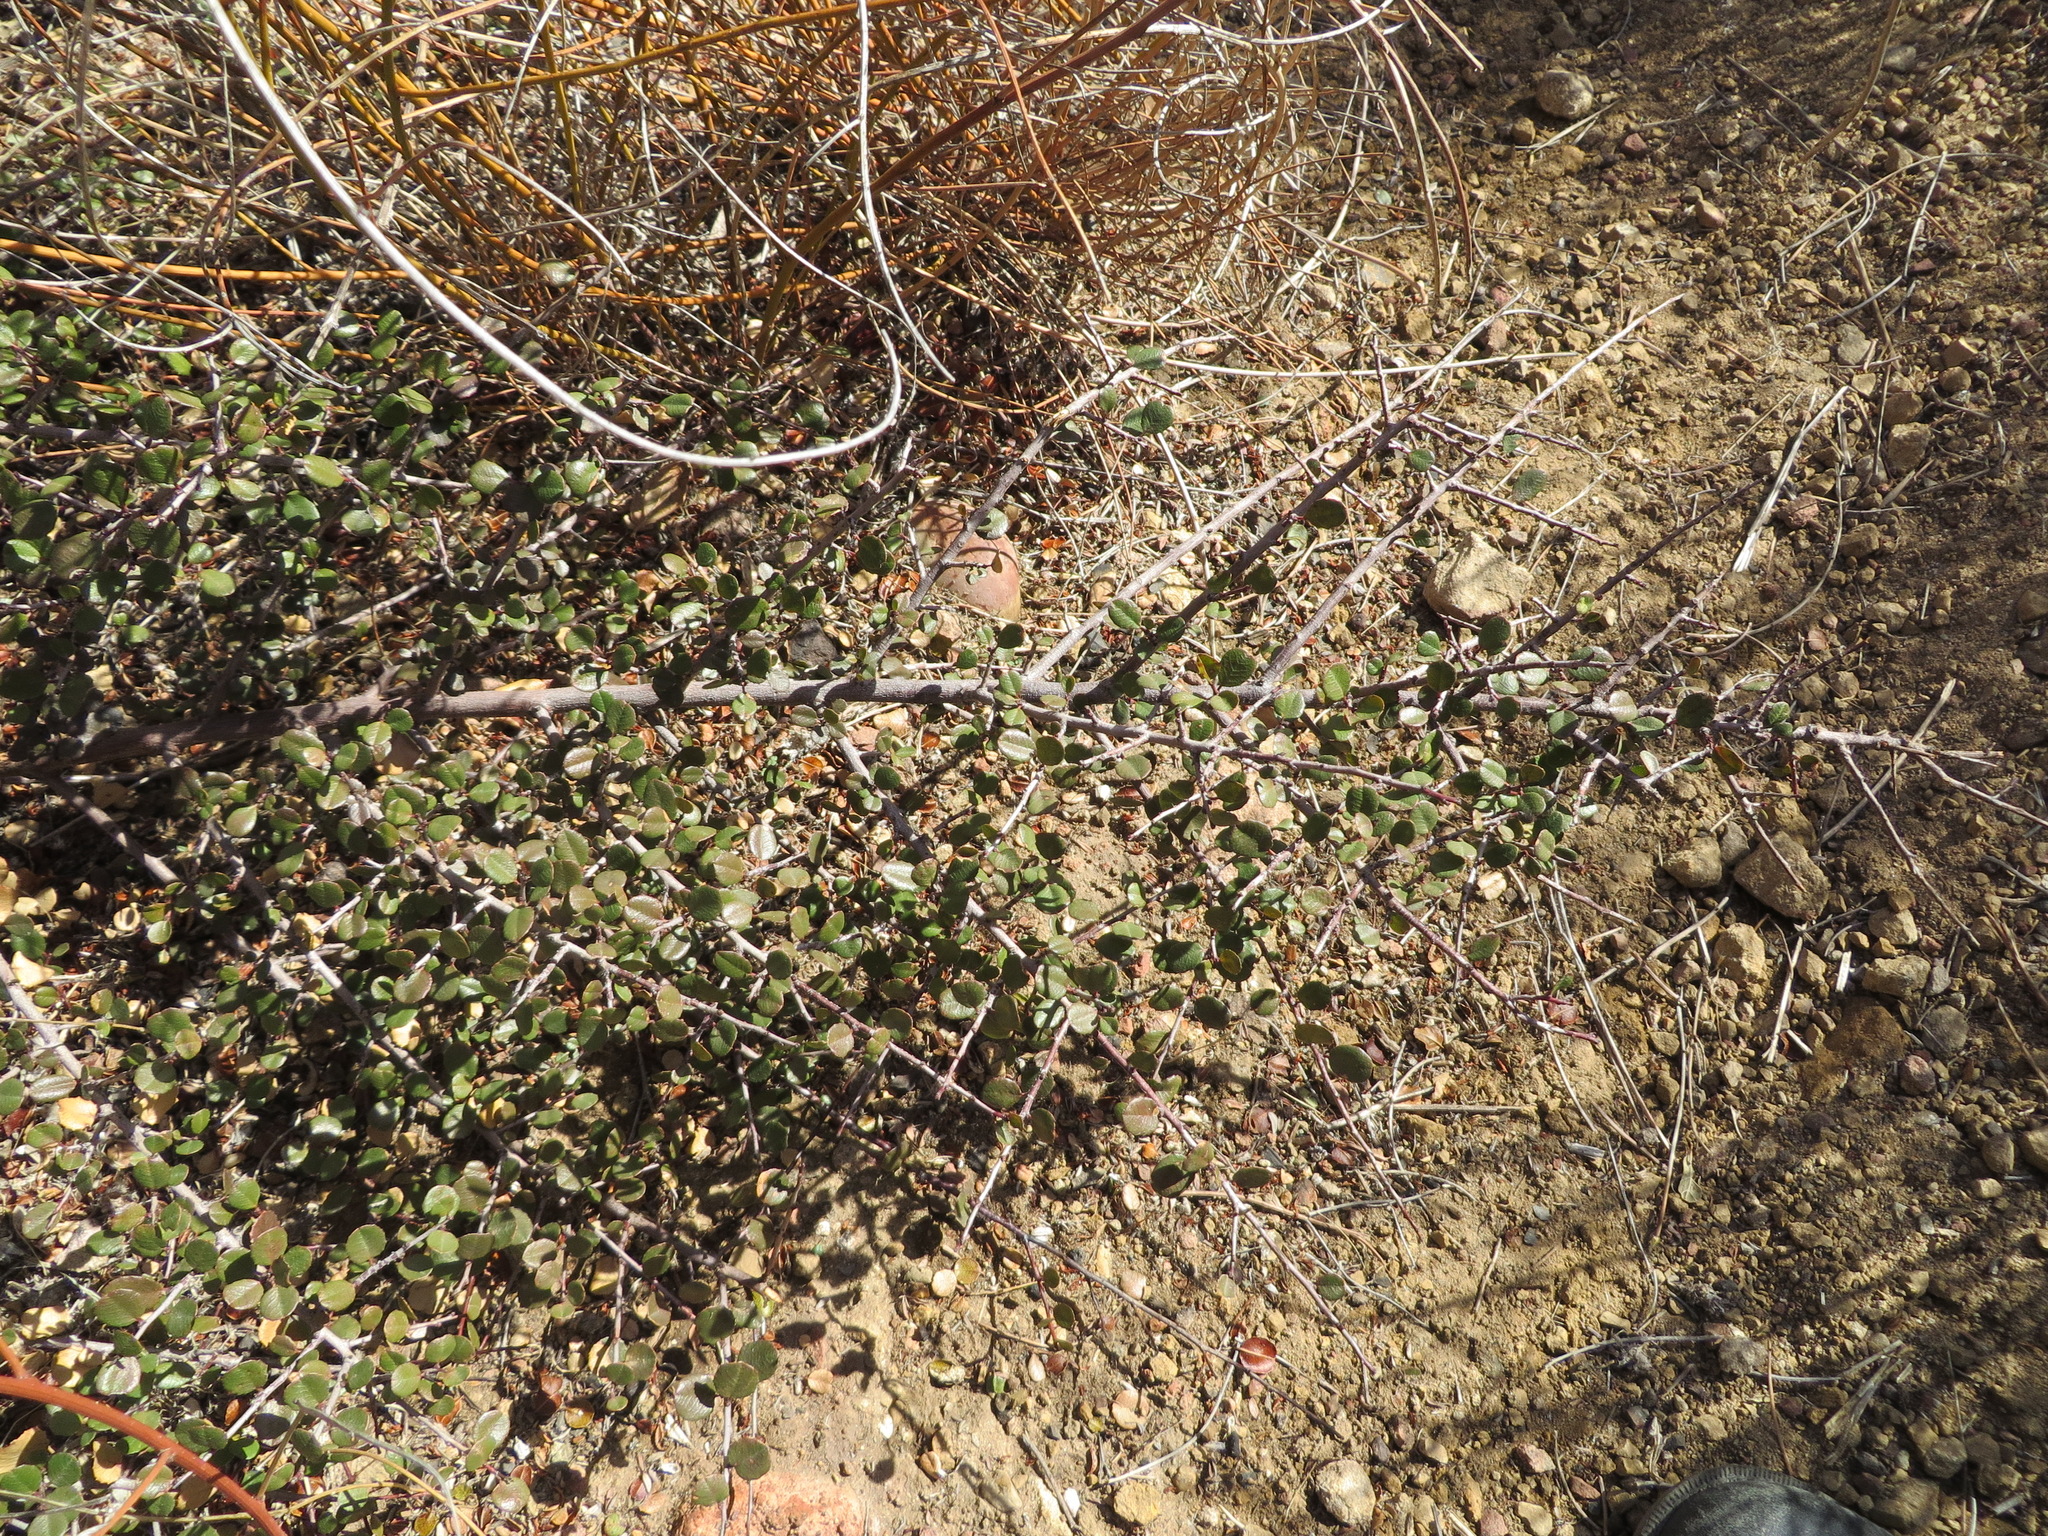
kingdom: Plantae
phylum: Tracheophyta
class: Magnoliopsida
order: Rosales
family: Rhamnaceae
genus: Endotropis
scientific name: Endotropis crocea
